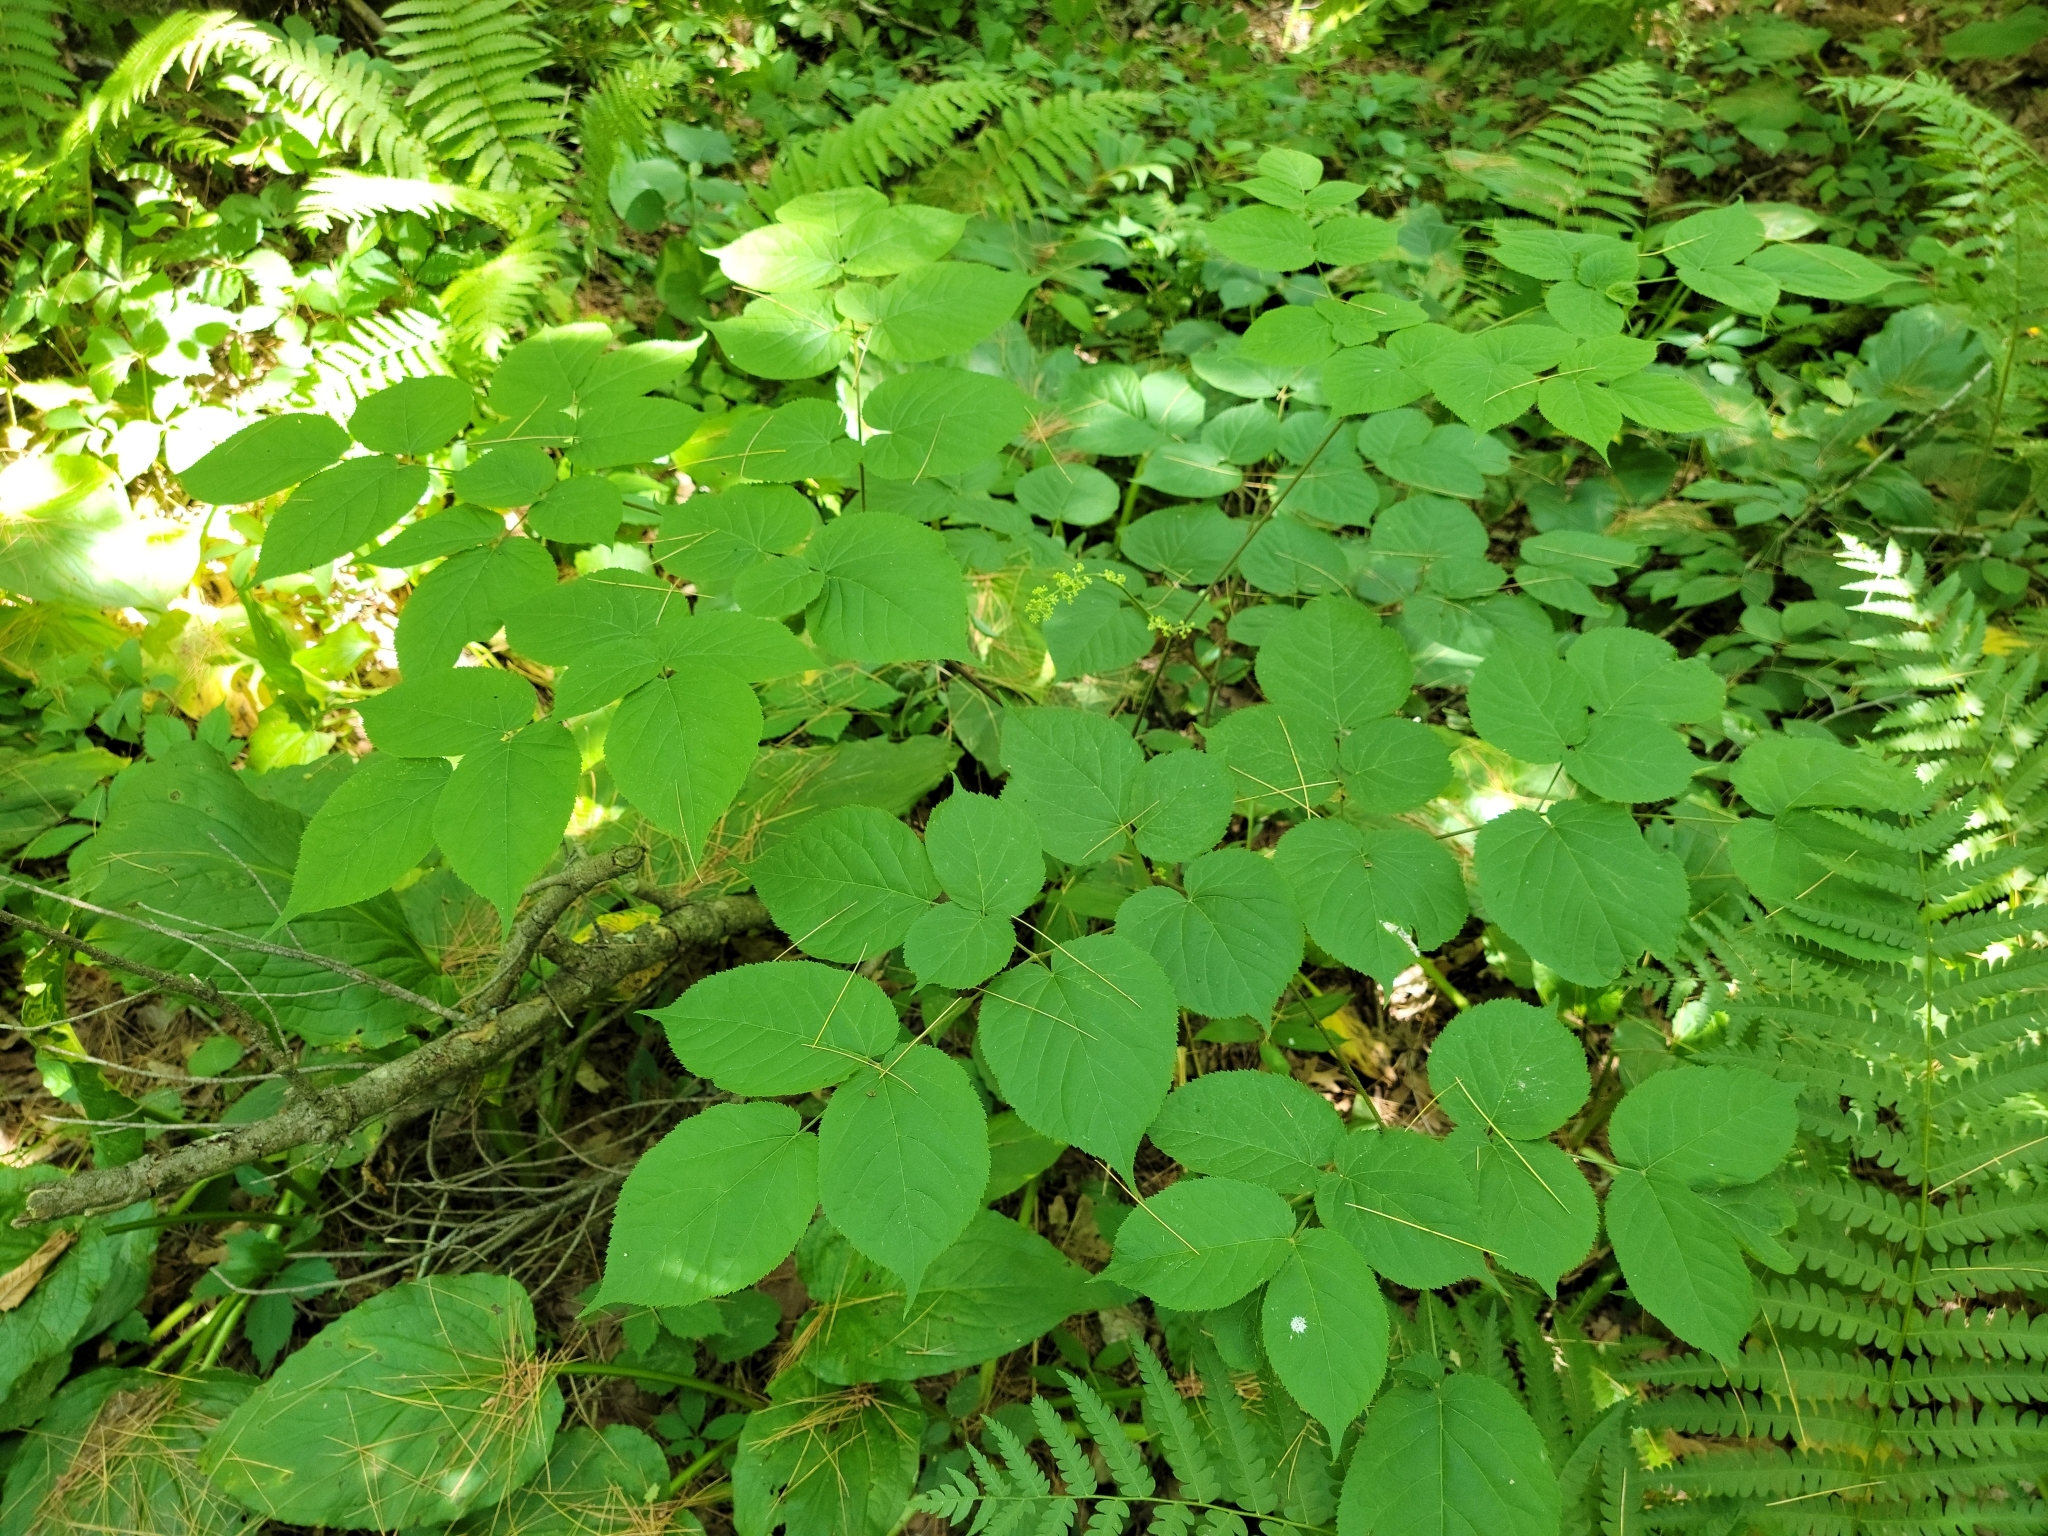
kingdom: Plantae
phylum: Tracheophyta
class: Magnoliopsida
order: Apiales
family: Araliaceae
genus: Aralia
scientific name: Aralia racemosa
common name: American-spikenard
